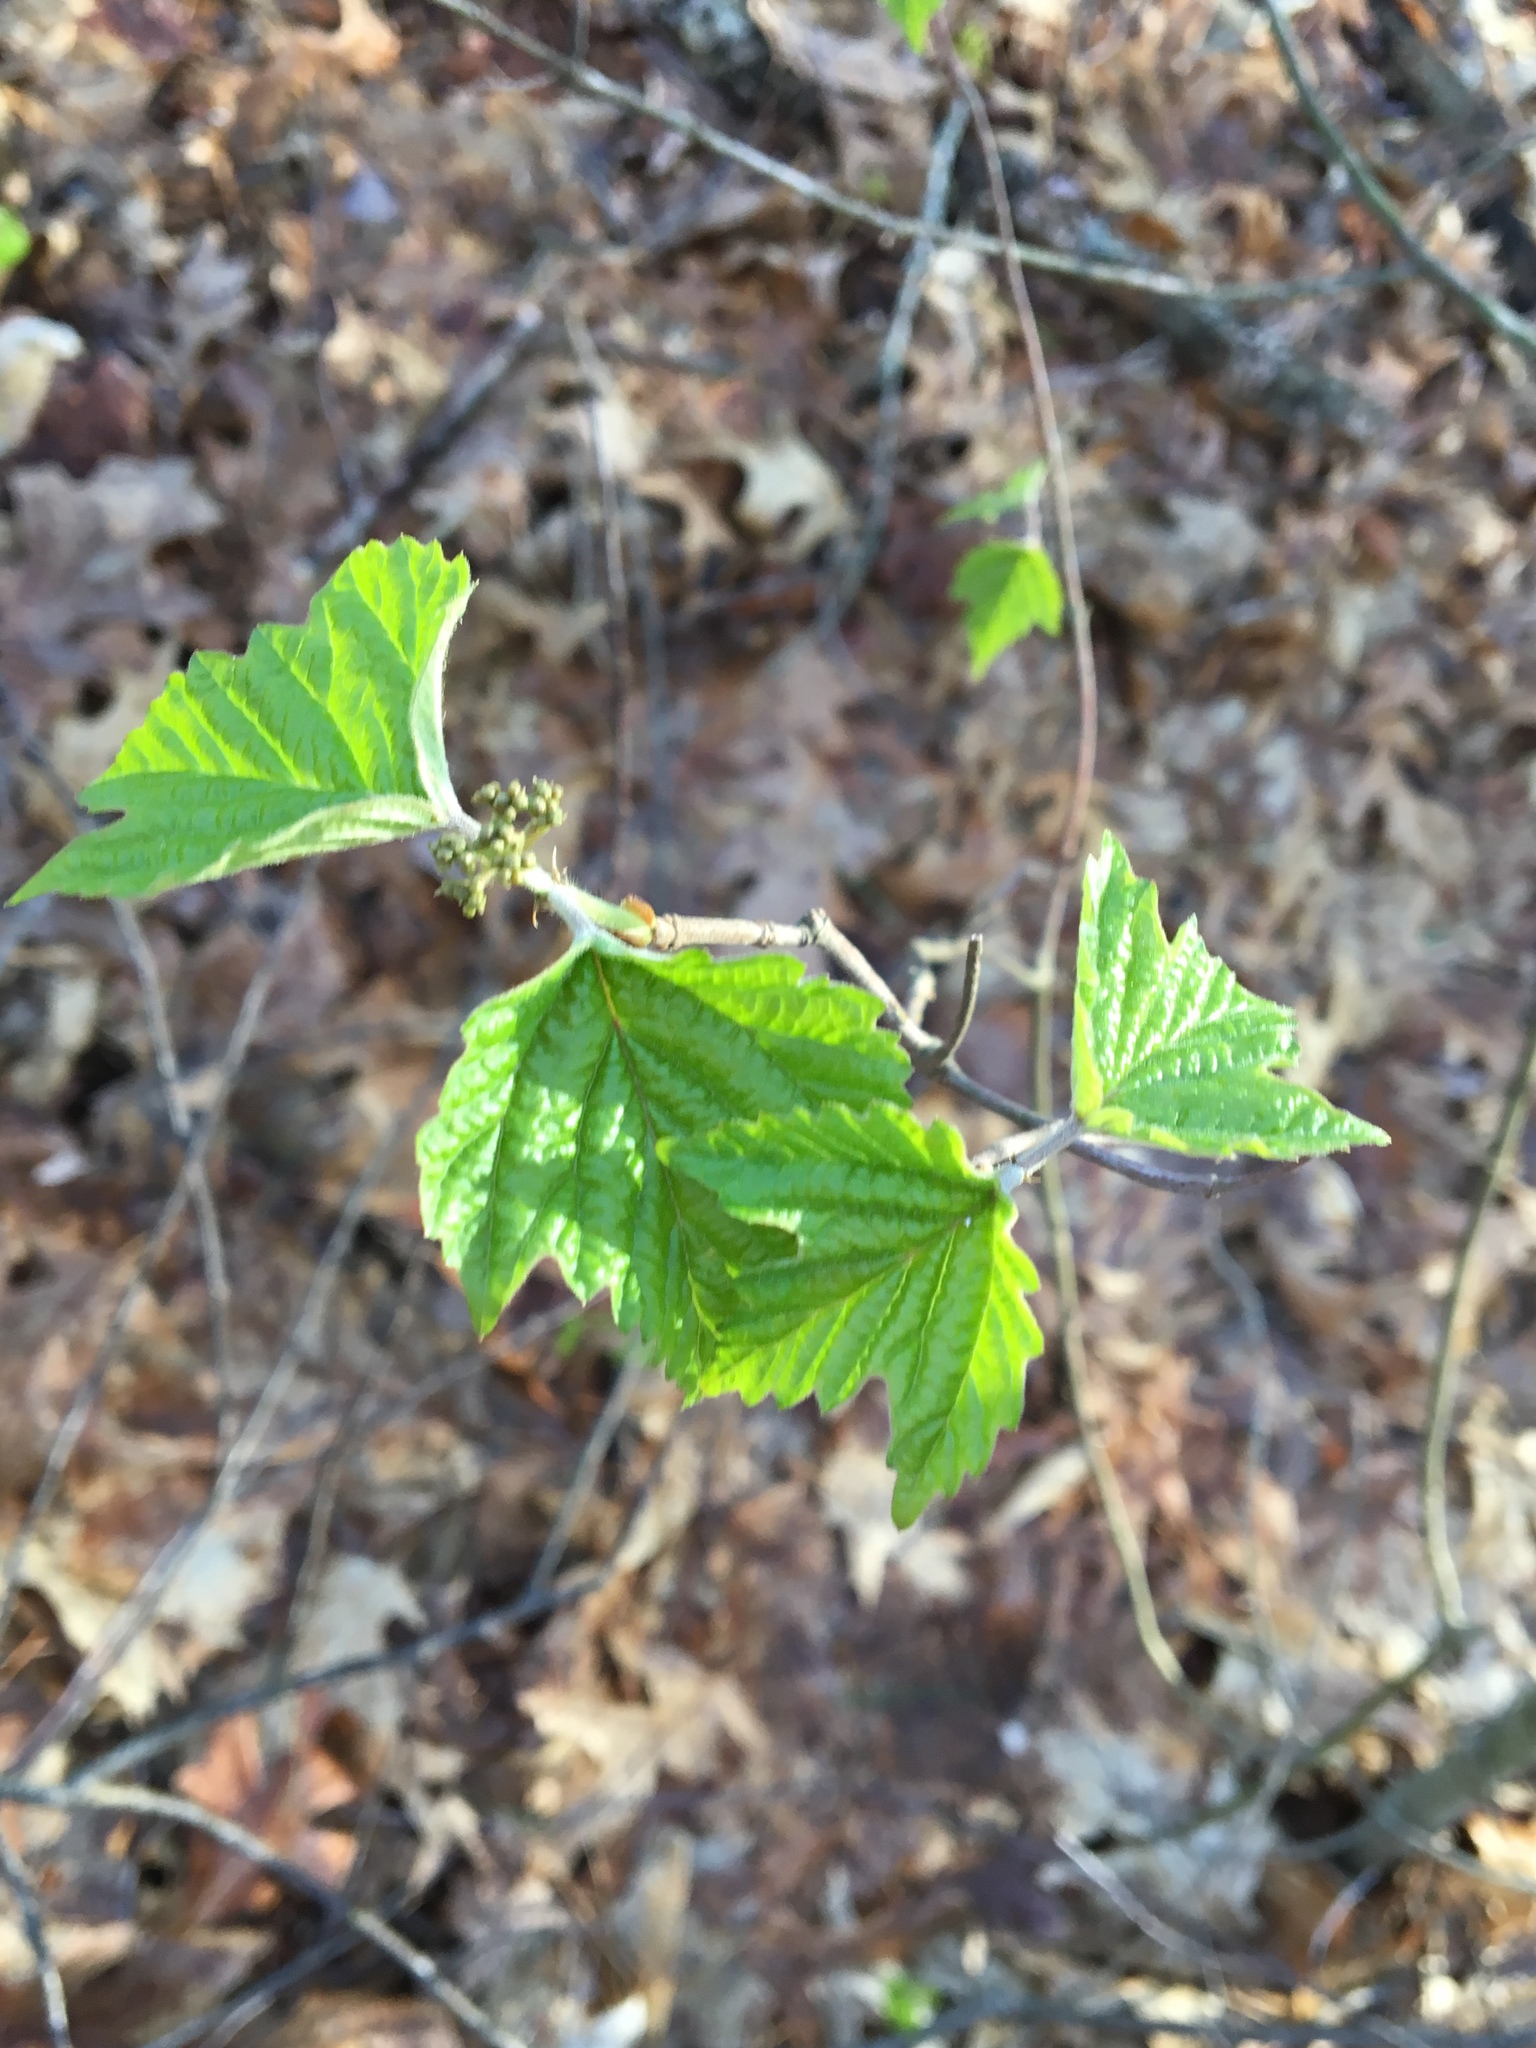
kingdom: Plantae
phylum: Tracheophyta
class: Magnoliopsida
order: Dipsacales
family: Viburnaceae
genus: Viburnum
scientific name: Viburnum acerifolium
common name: Dockmackie
